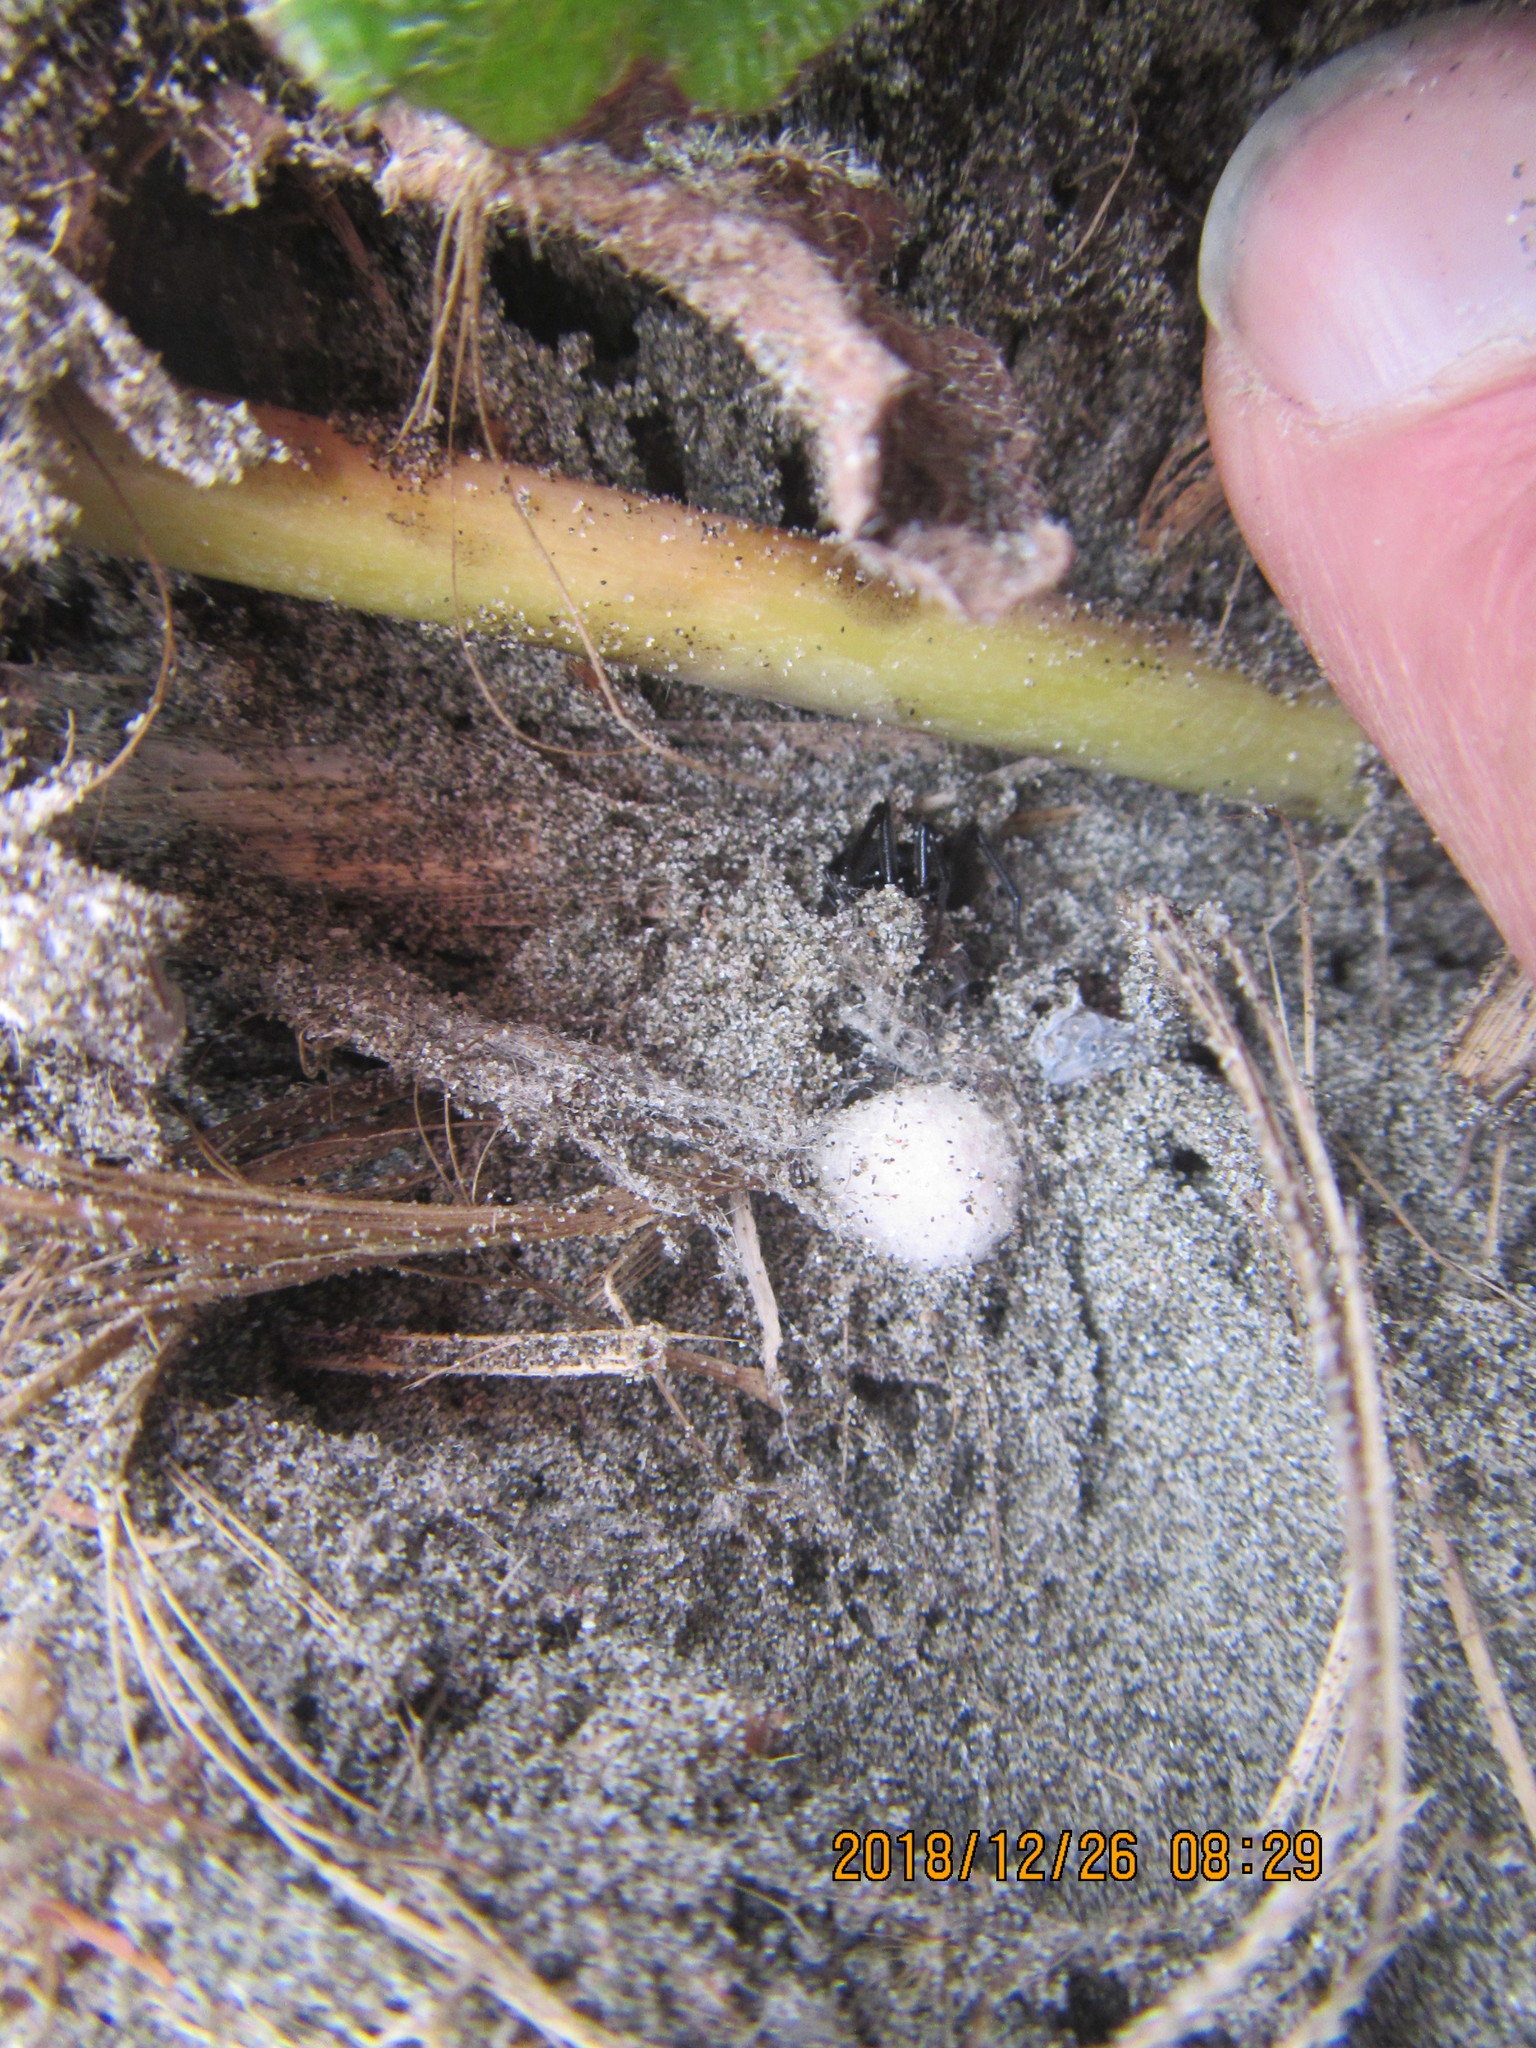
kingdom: Animalia
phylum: Arthropoda
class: Arachnida
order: Araneae
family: Theridiidae
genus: Steatoda
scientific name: Steatoda capensis
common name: Cobweb weaver
